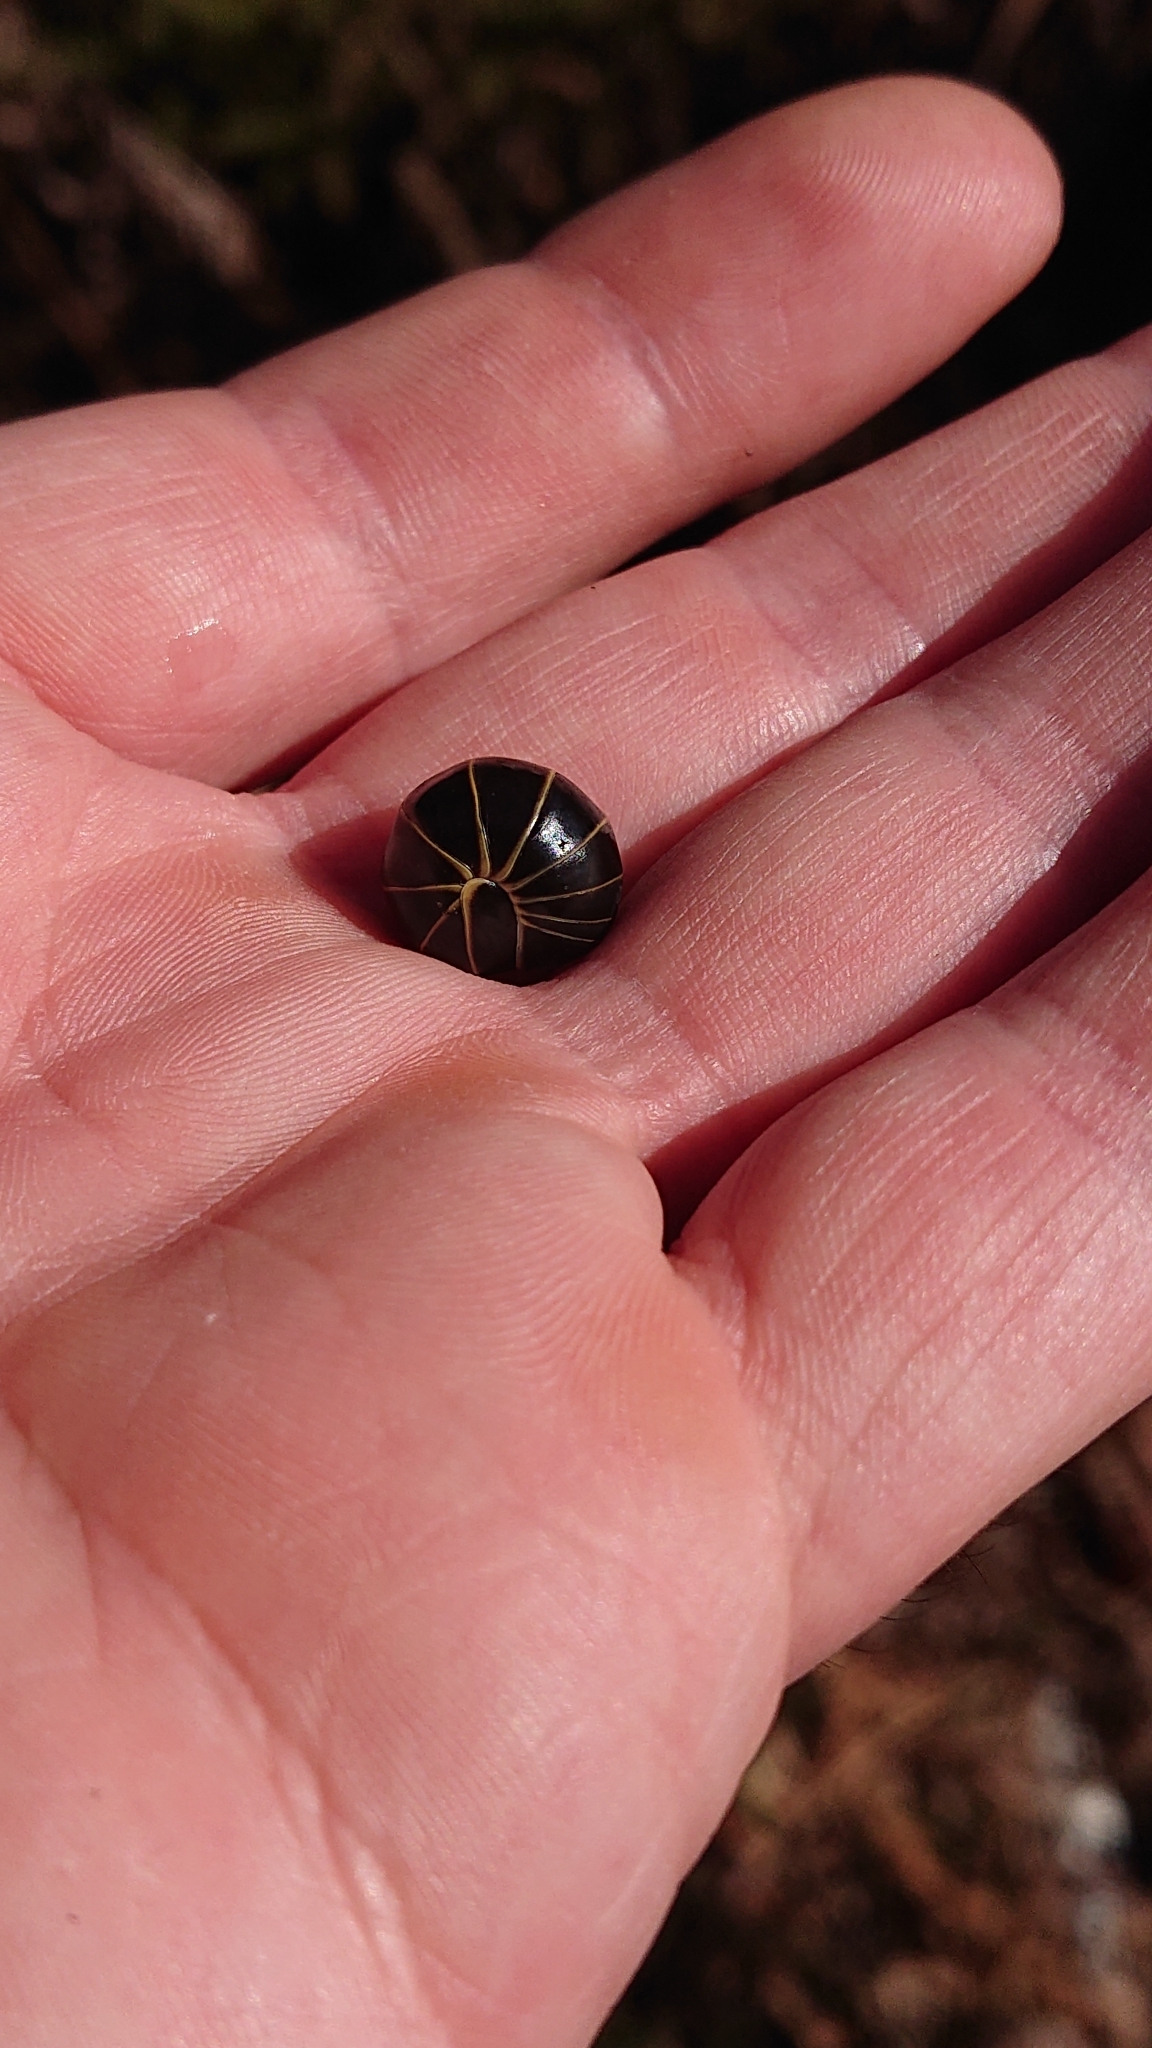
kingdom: Animalia
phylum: Arthropoda
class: Diplopoda
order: Glomerida
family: Glomeridae
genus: Glomeris
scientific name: Glomeris marginata
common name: Bordered pill millipede
